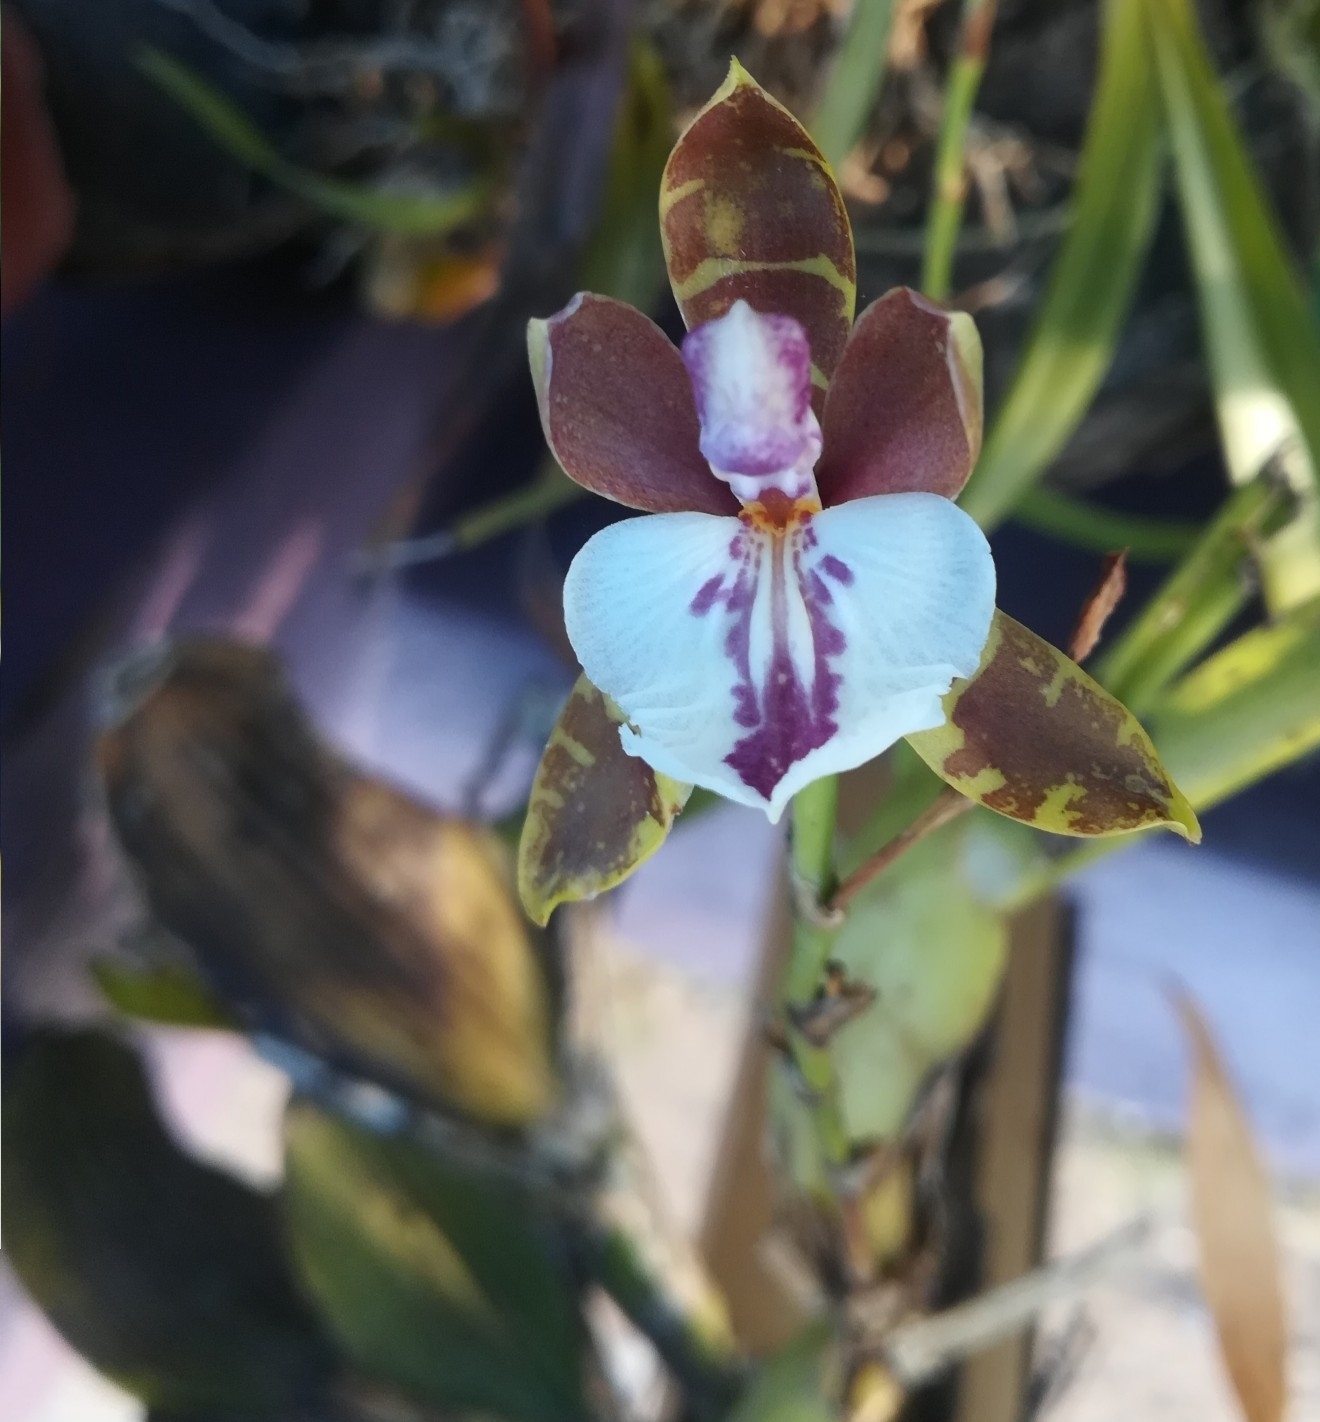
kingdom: Plantae
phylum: Tracheophyta
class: Liliopsida
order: Asparagales
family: Orchidaceae
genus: Aspasia
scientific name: Aspasia epidendroides
